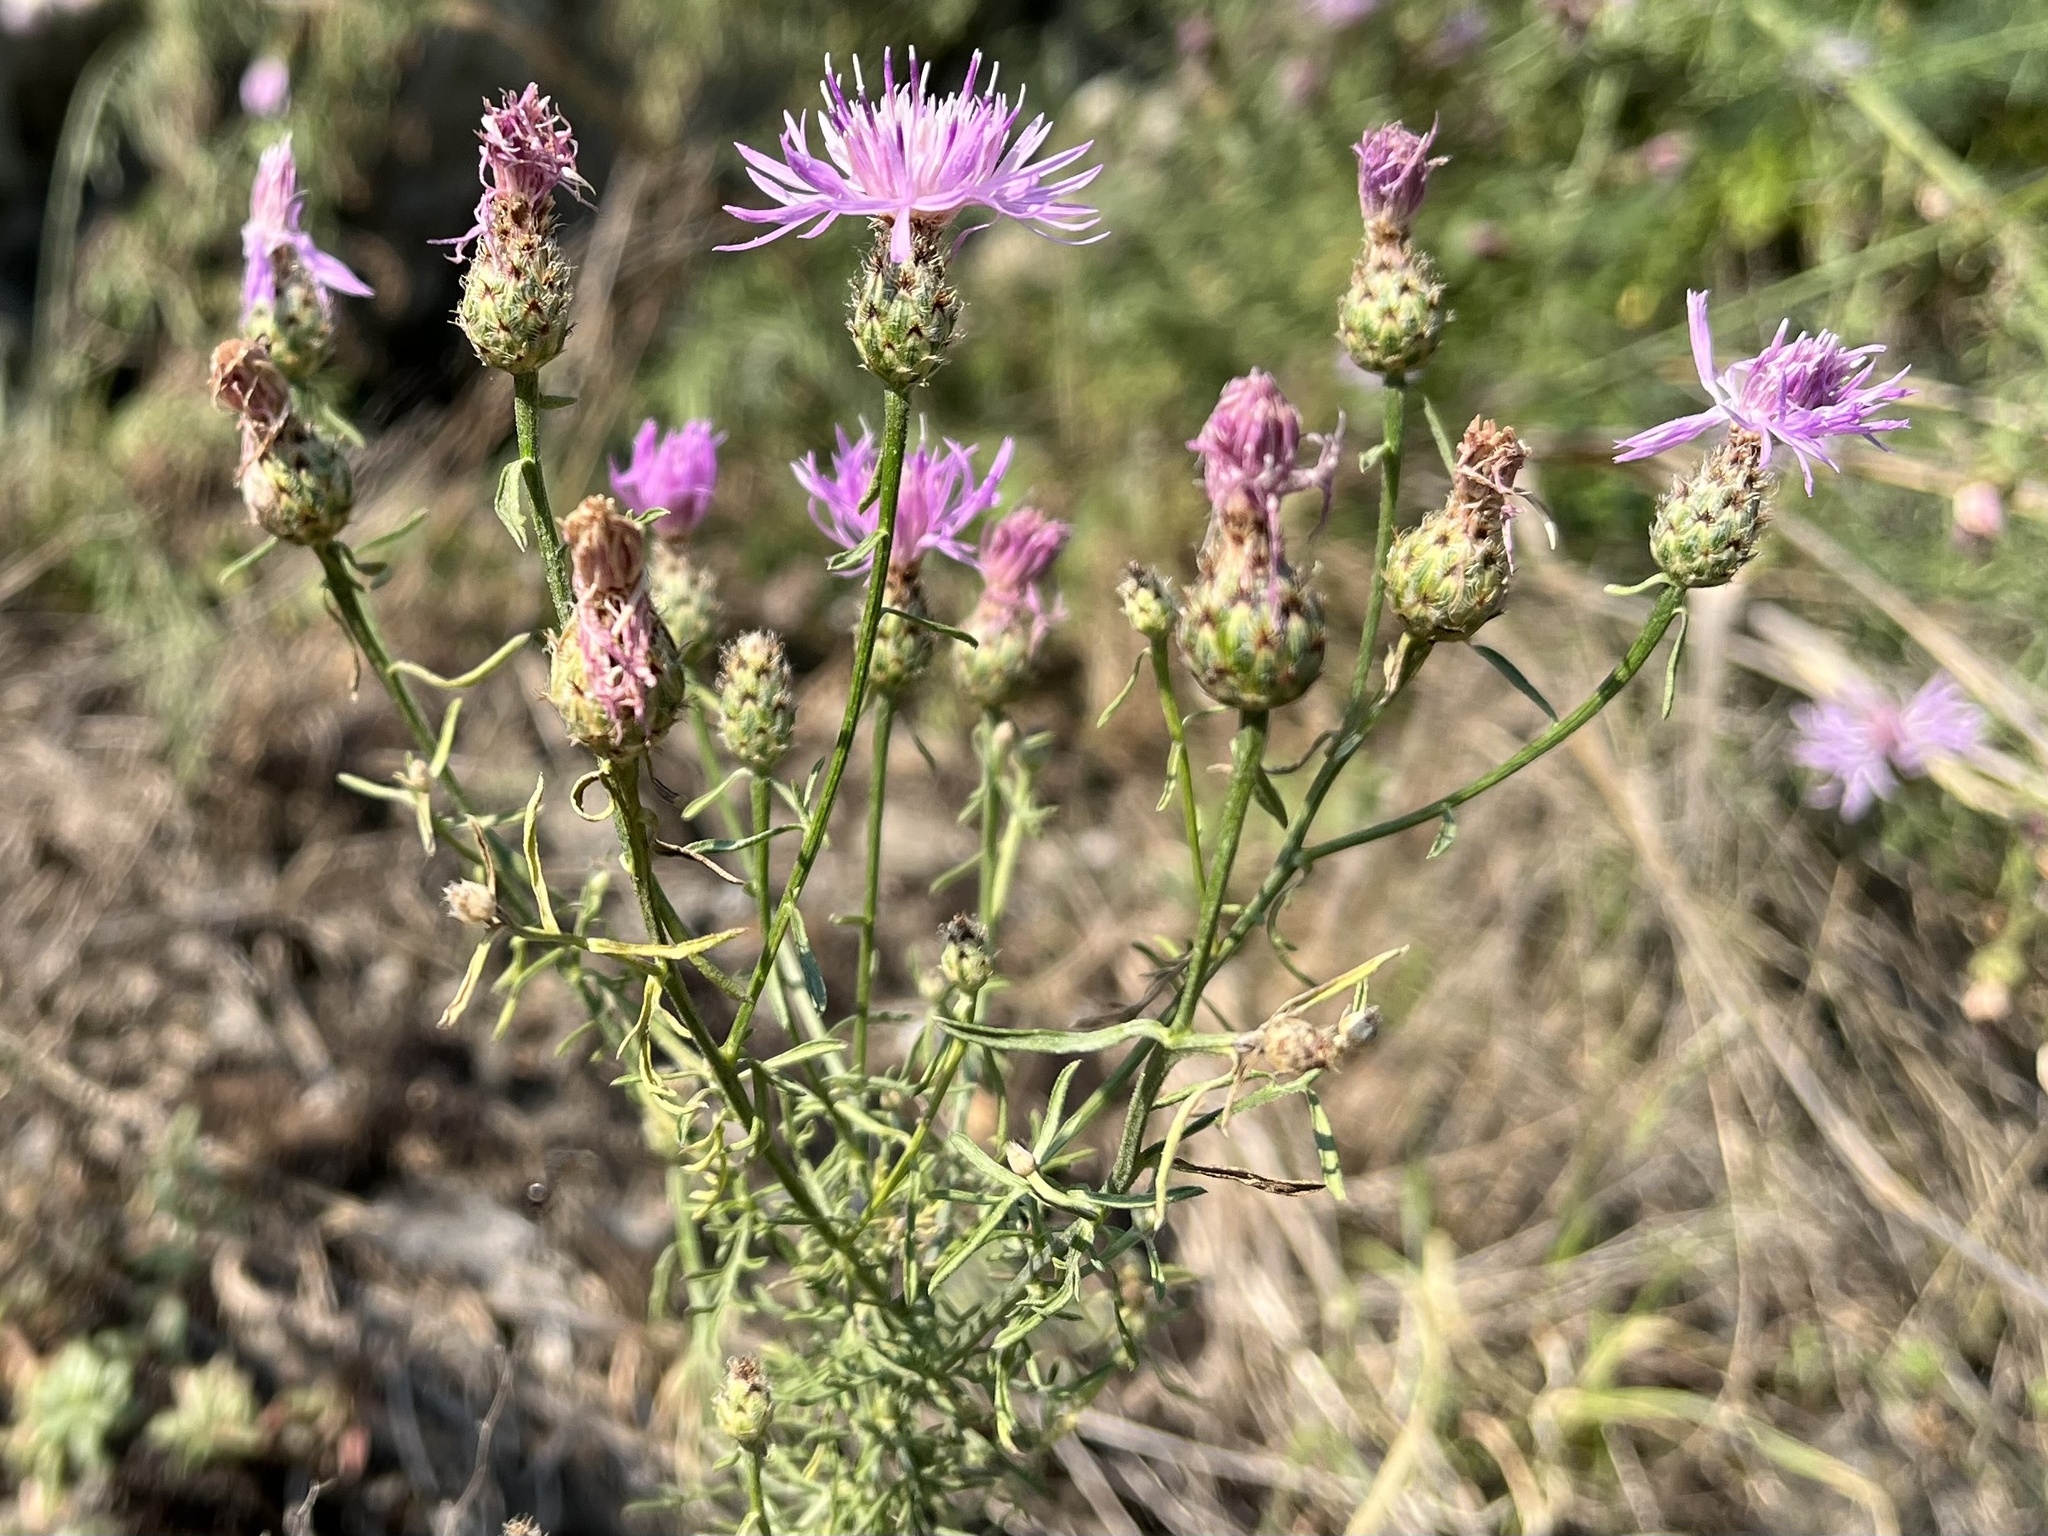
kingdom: Plantae
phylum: Tracheophyta
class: Magnoliopsida
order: Asterales
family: Asteraceae
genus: Centaurea
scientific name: Centaurea stoebe
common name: Spotted knapweed
